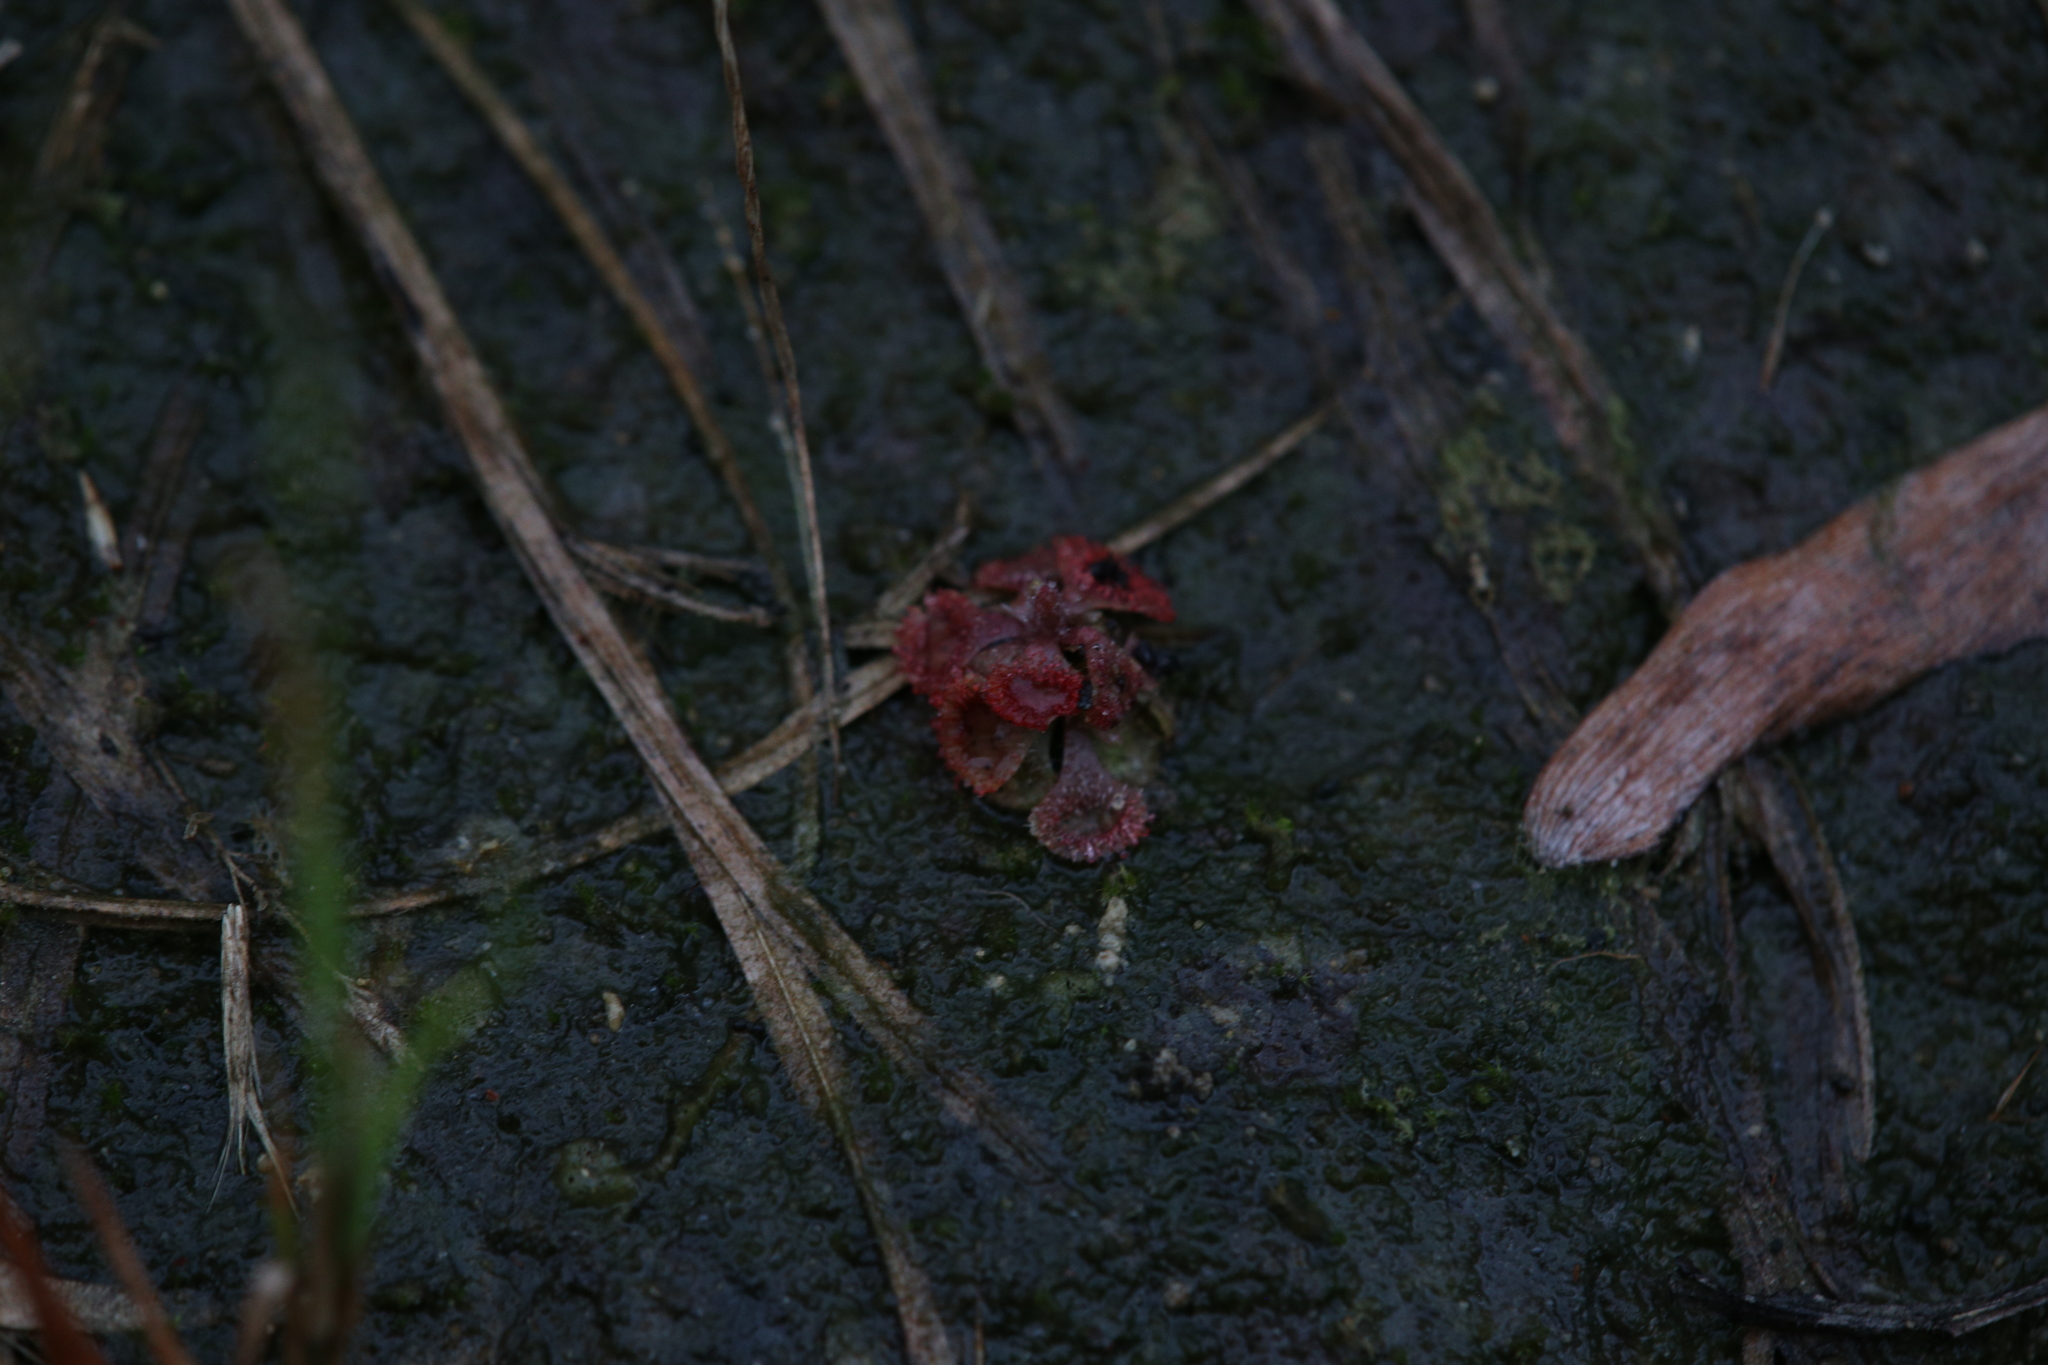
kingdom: Plantae
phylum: Tracheophyta
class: Magnoliopsida
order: Caryophyllales
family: Droseraceae
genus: Drosera
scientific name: Drosera spatulata
